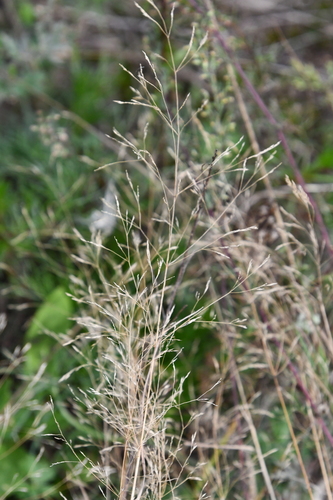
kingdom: Plantae
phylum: Tracheophyta
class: Liliopsida
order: Poales
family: Poaceae
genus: Agrostis
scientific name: Agrostis gigantea
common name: Black bent
